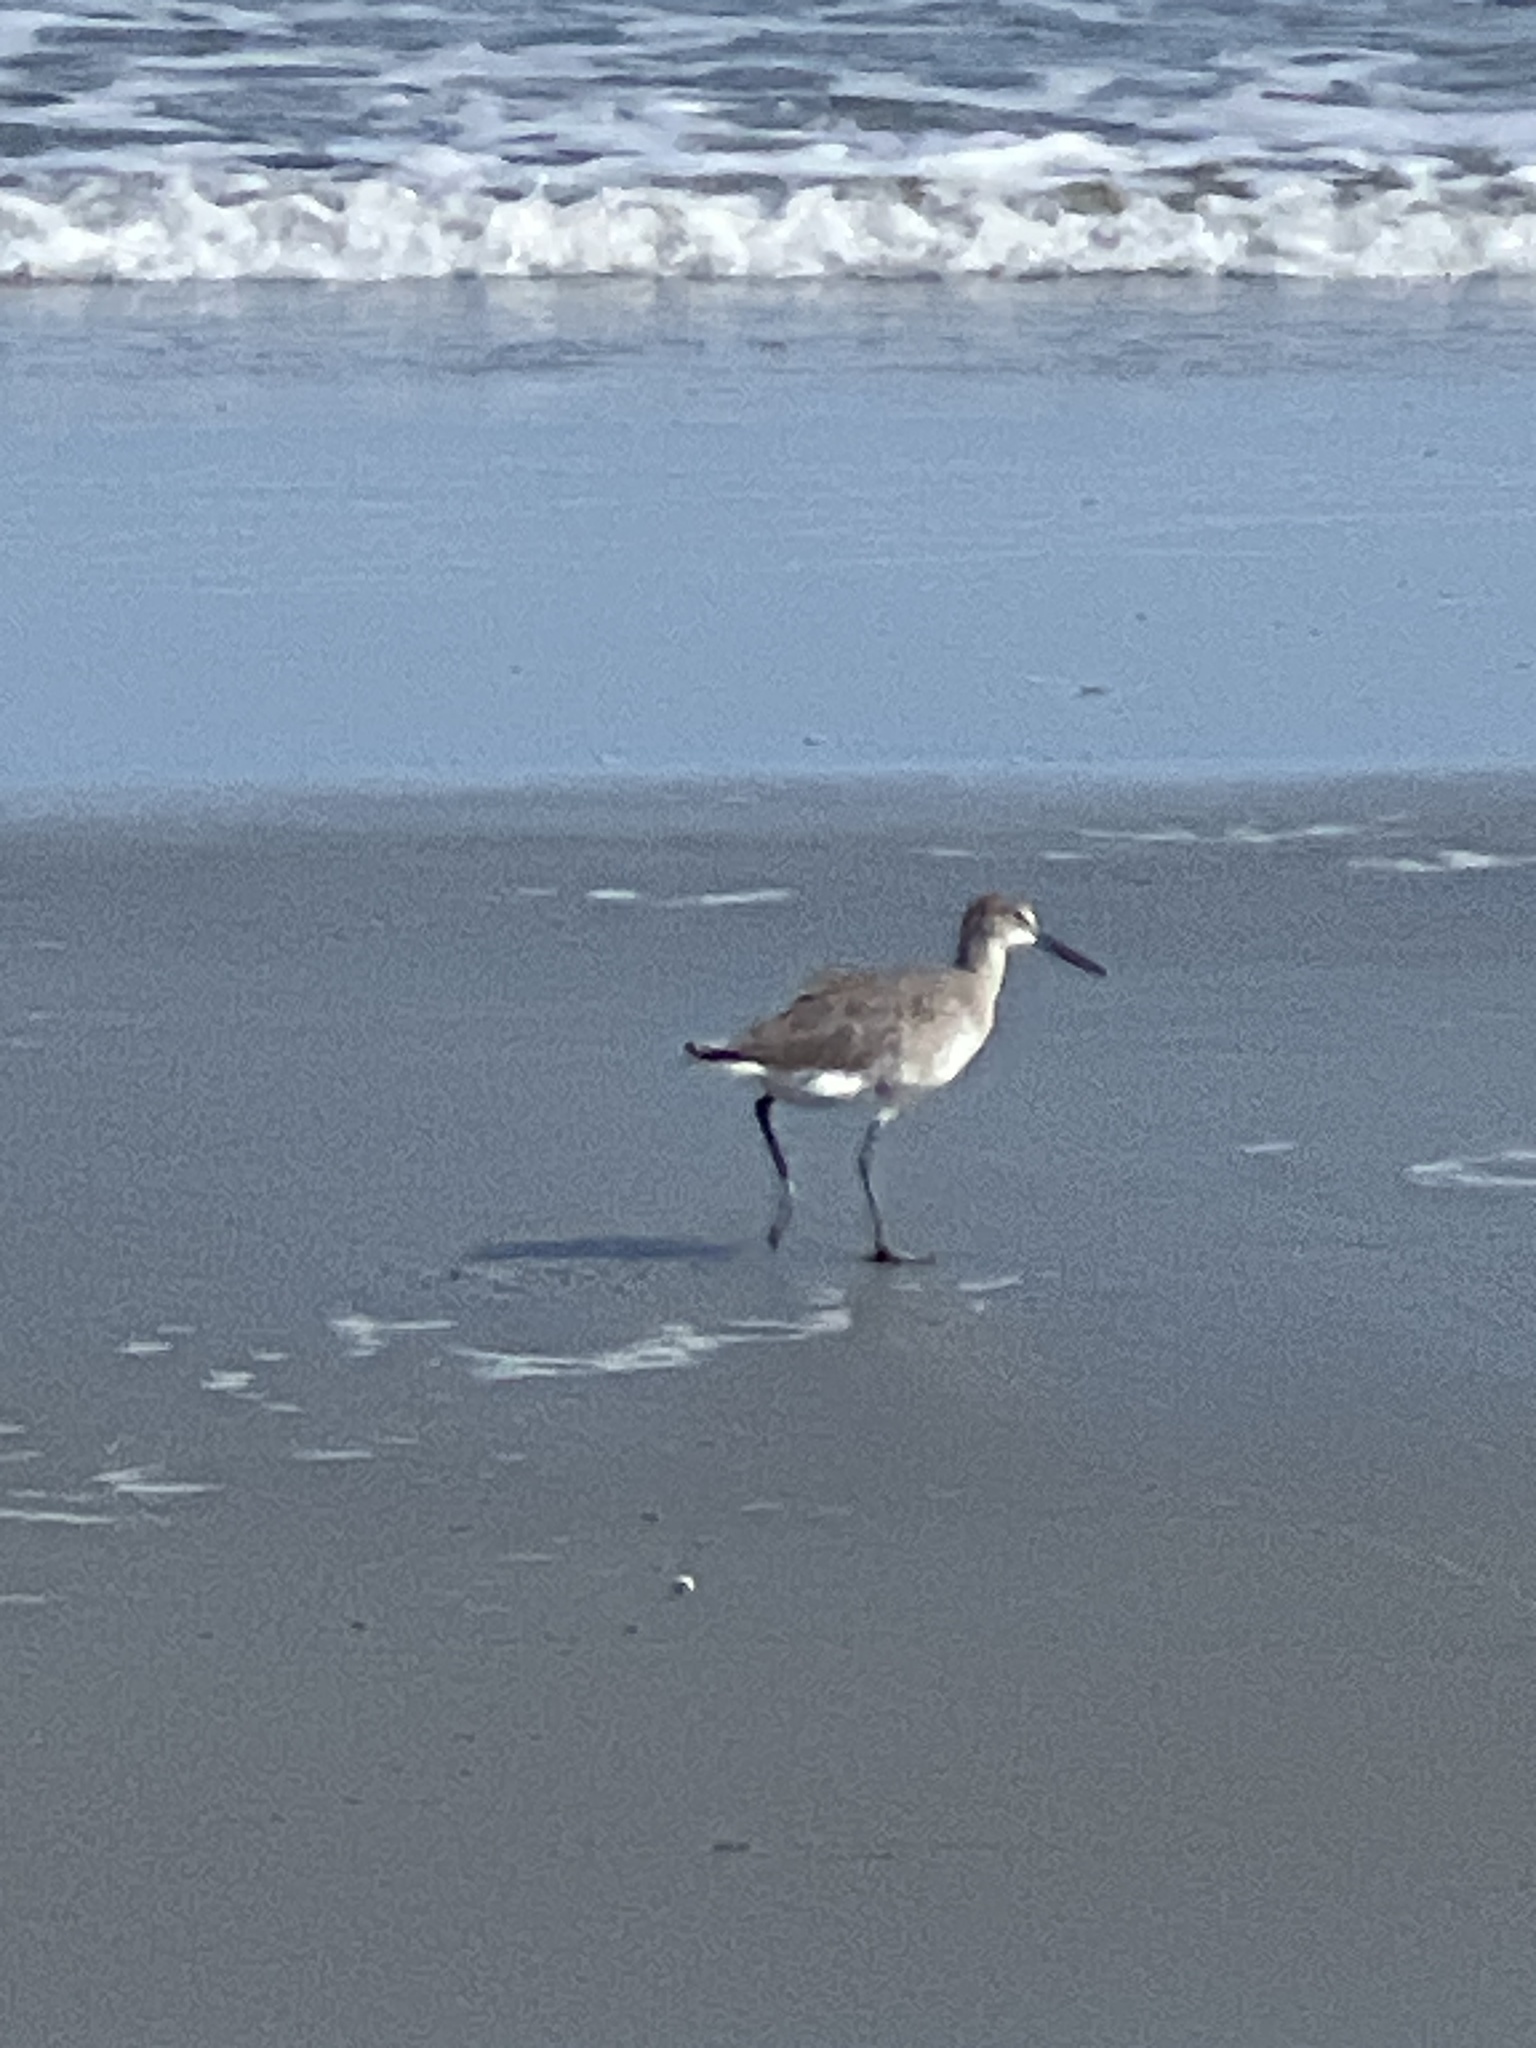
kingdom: Animalia
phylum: Chordata
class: Aves
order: Charadriiformes
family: Scolopacidae
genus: Tringa
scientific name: Tringa semipalmata
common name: Willet
